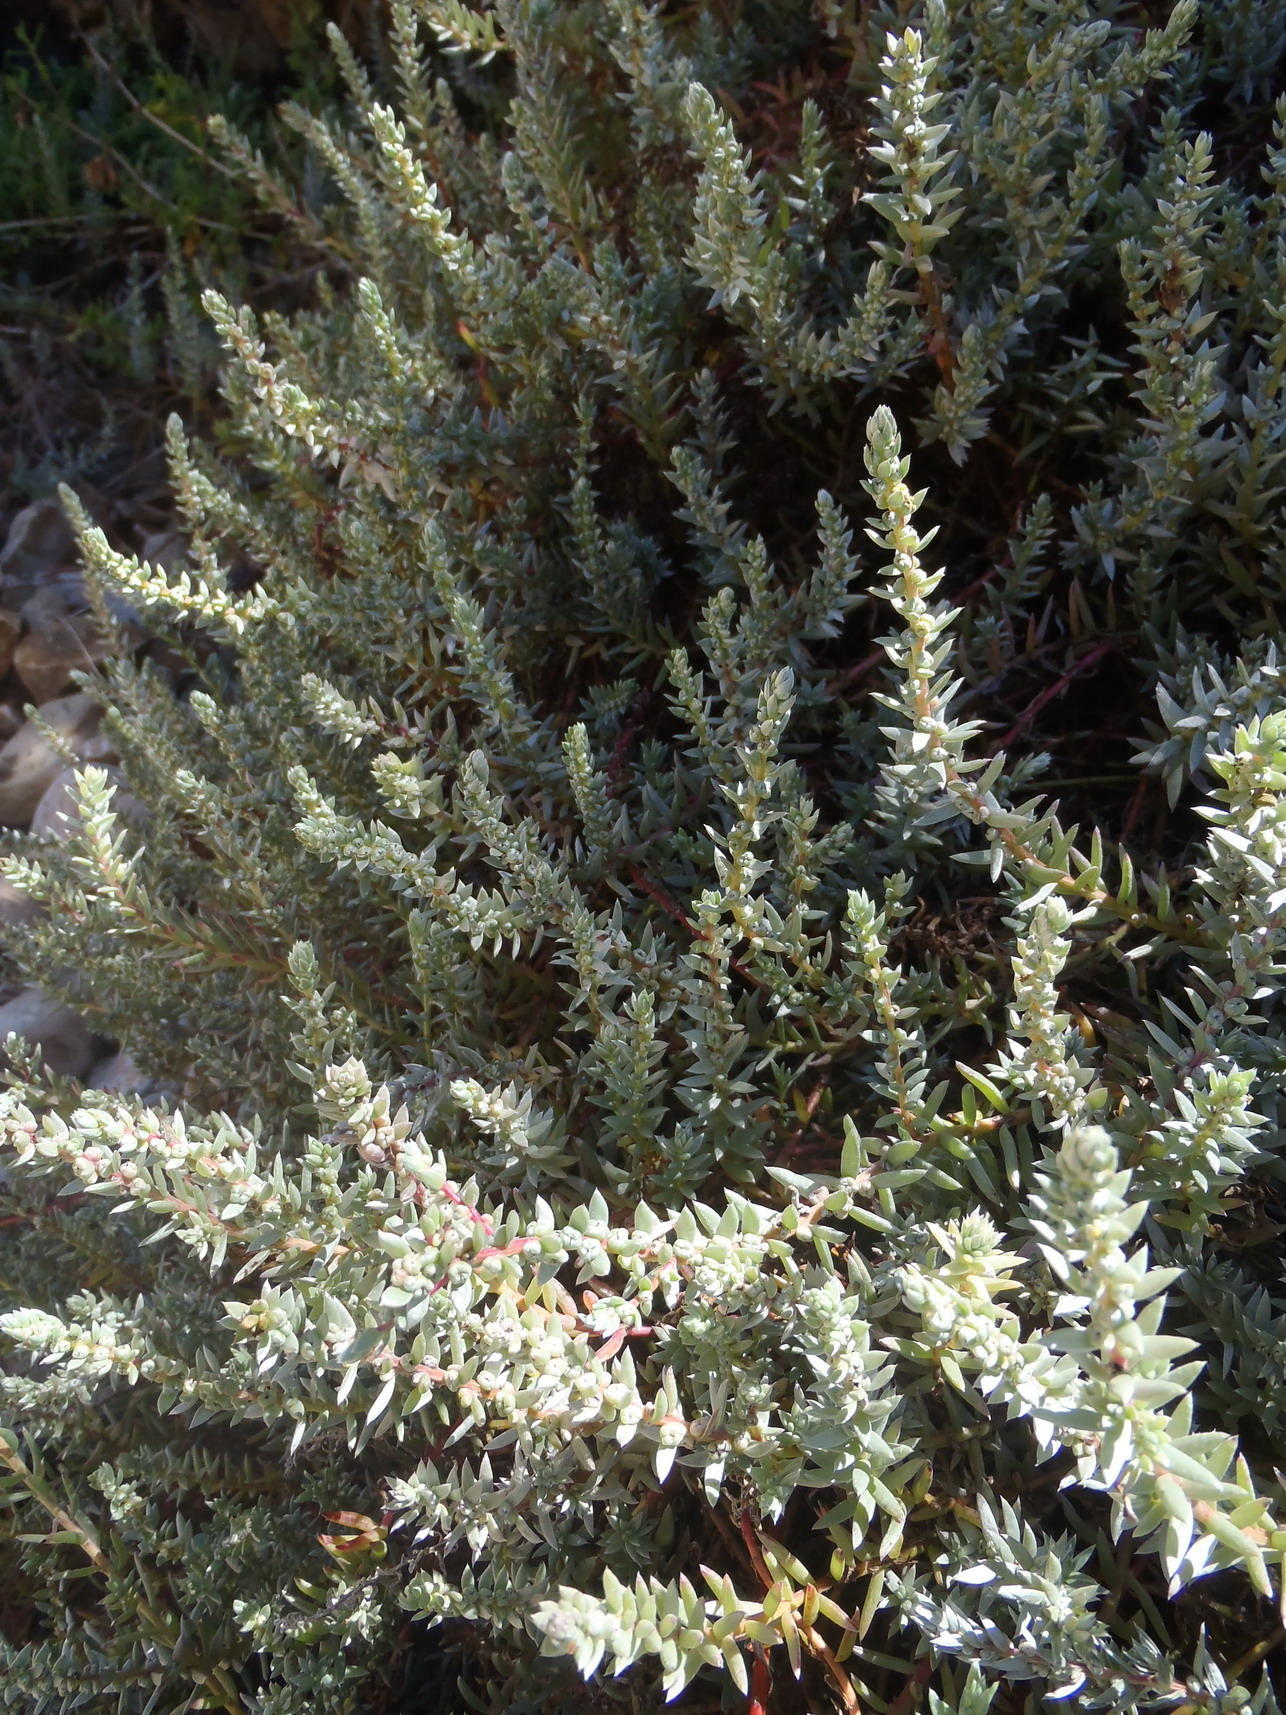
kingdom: Plantae
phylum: Tracheophyta
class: Magnoliopsida
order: Caryophyllales
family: Amaranthaceae
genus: Chenolea
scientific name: Chenolea diffusa
